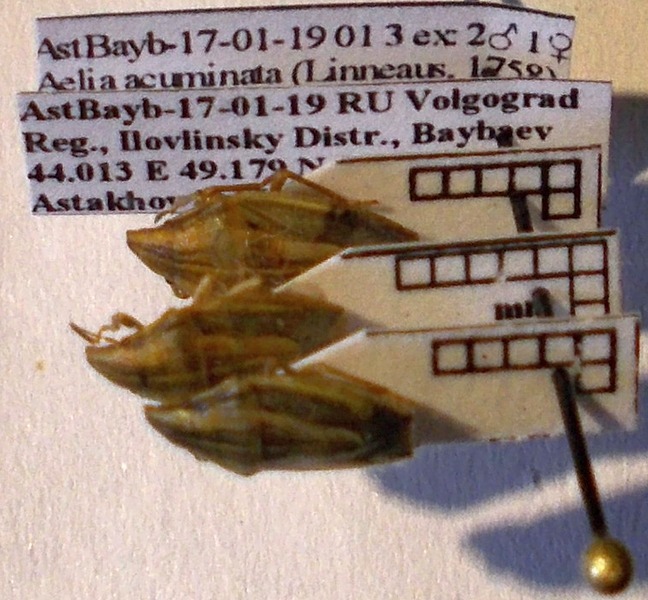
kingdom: Animalia
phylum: Arthropoda
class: Insecta
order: Hemiptera
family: Pentatomidae
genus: Aelia
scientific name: Aelia acuminata
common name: Bishop's mitre
